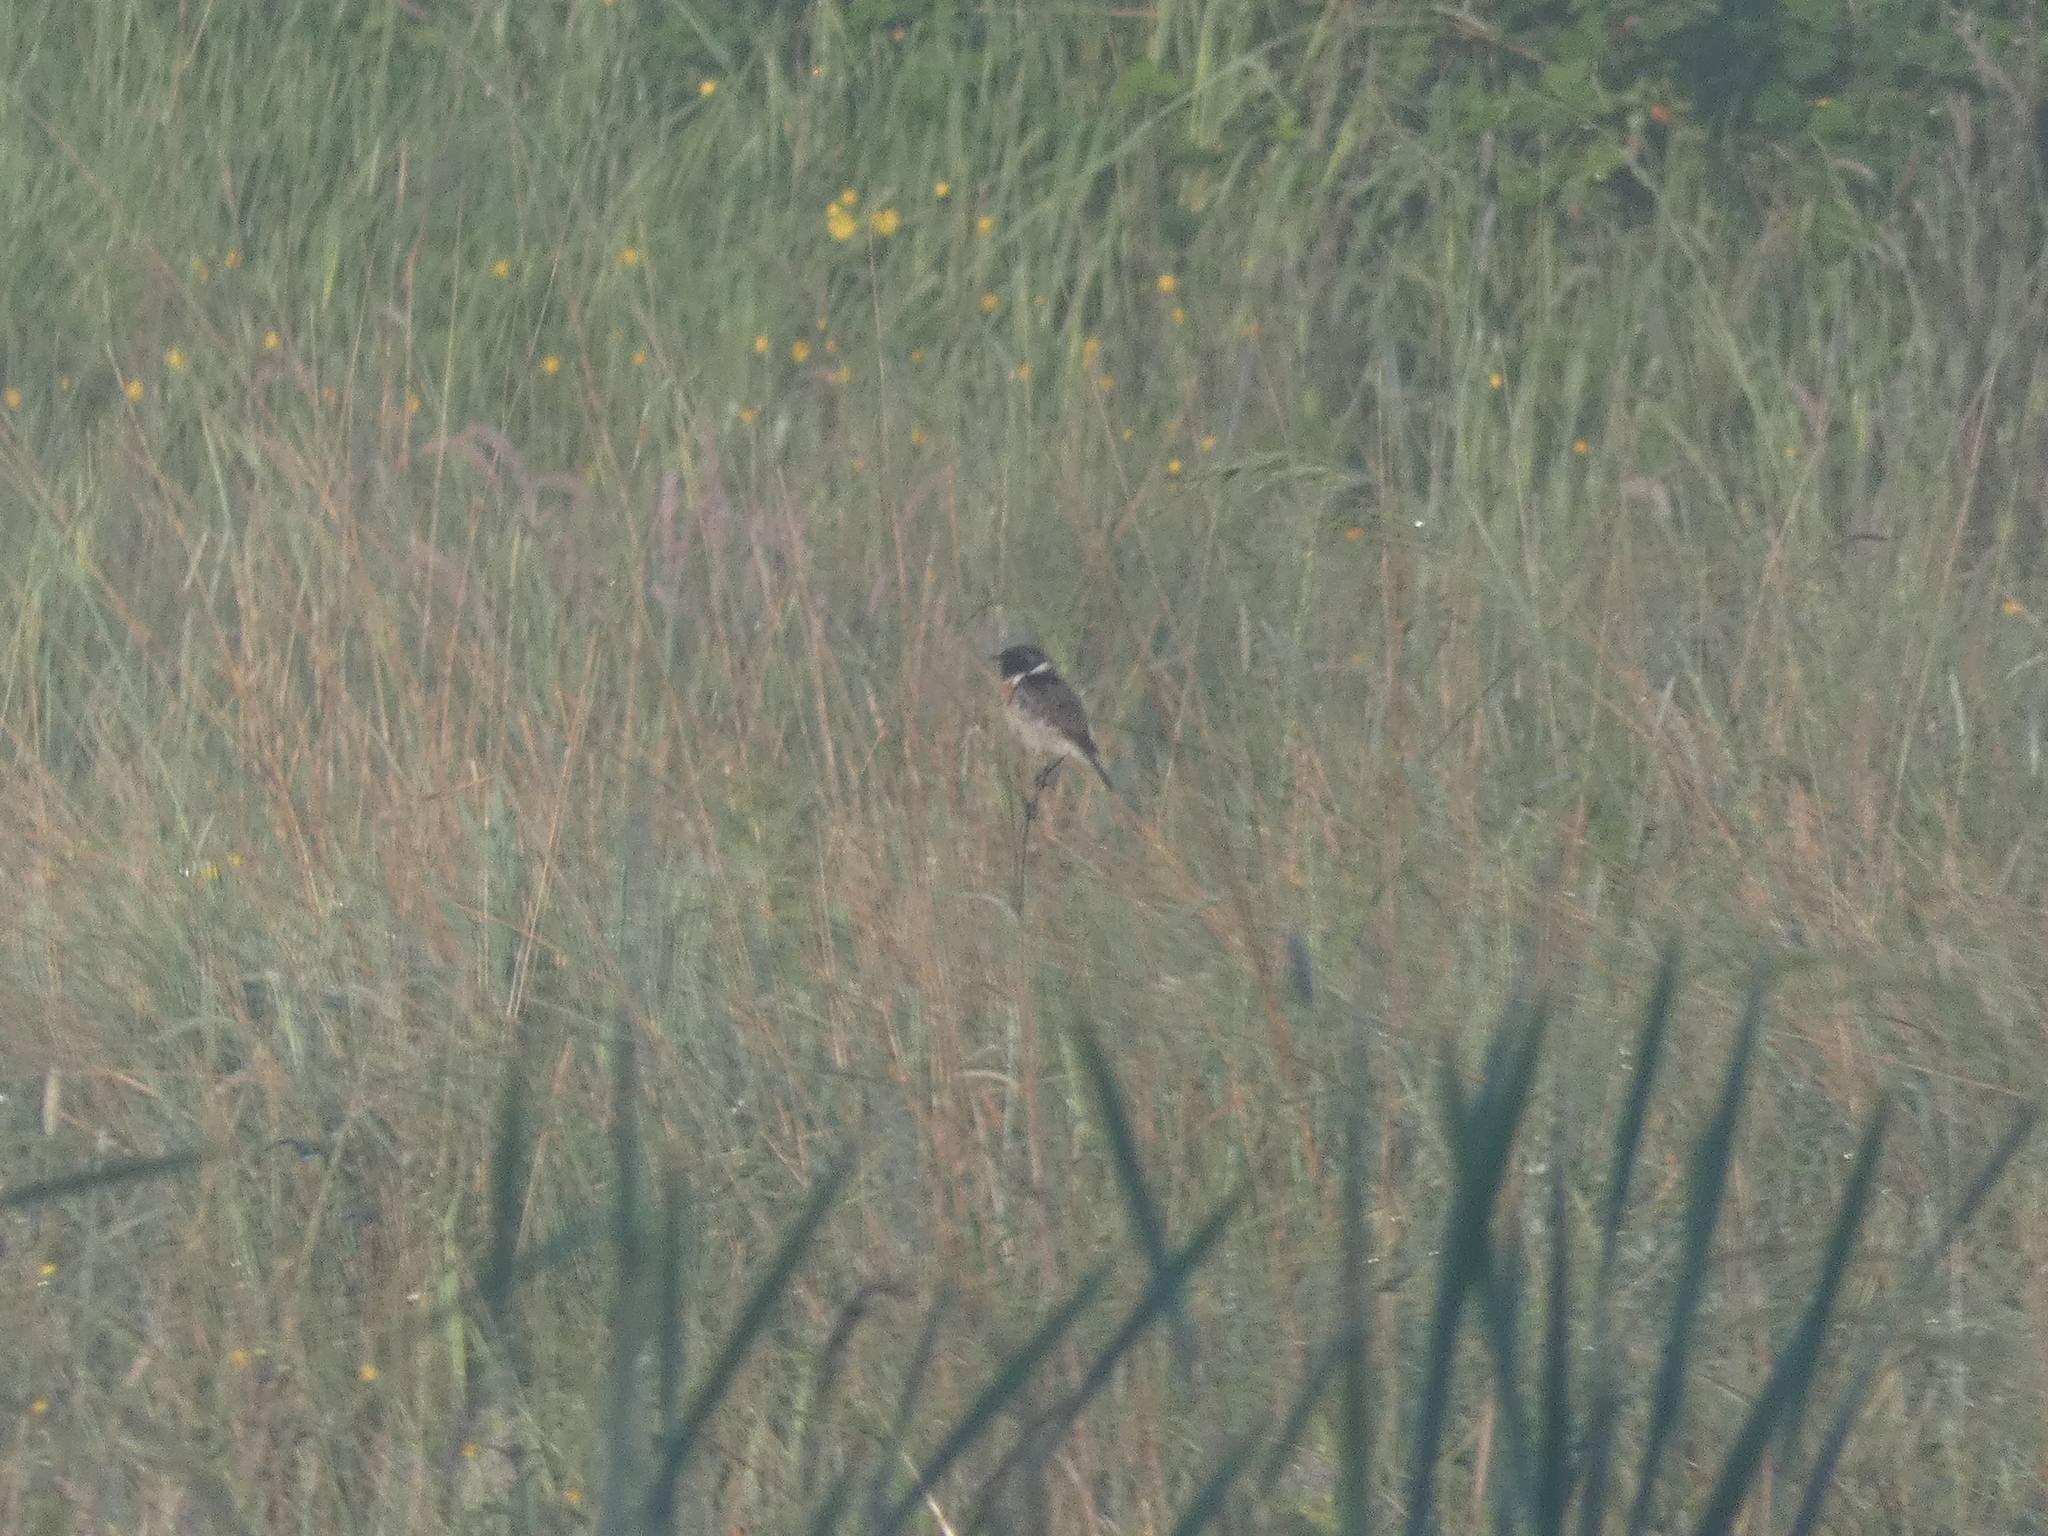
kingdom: Animalia
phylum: Chordata
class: Aves
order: Passeriformes
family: Muscicapidae
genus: Saxicola
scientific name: Saxicola rubicola
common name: European stonechat
